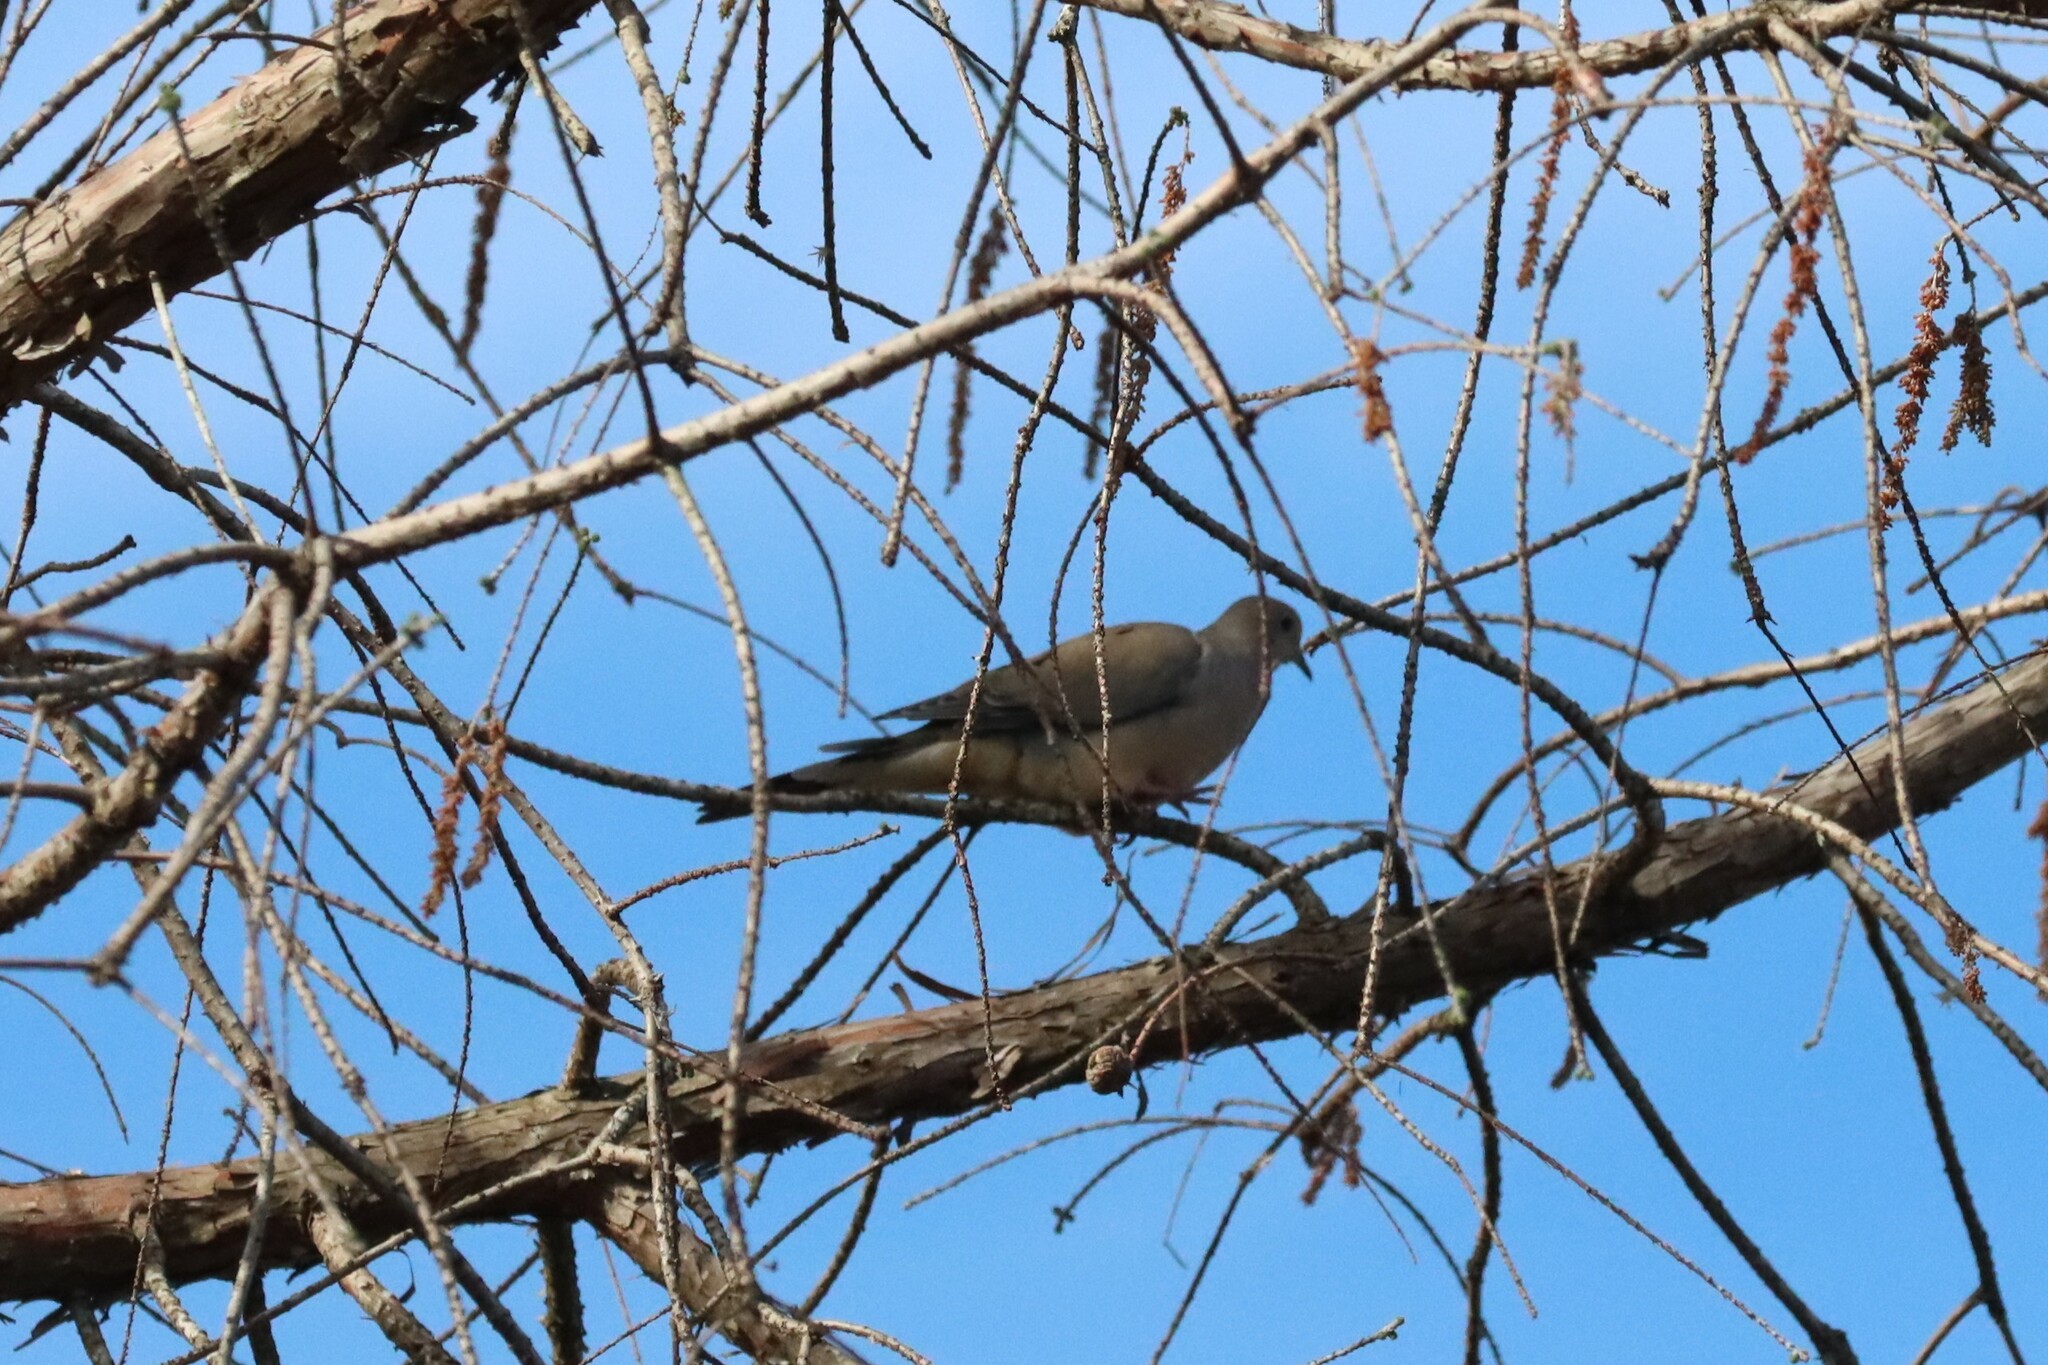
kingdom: Animalia
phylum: Chordata
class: Aves
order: Columbiformes
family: Columbidae
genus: Zenaida
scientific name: Zenaida macroura
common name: Mourning dove
